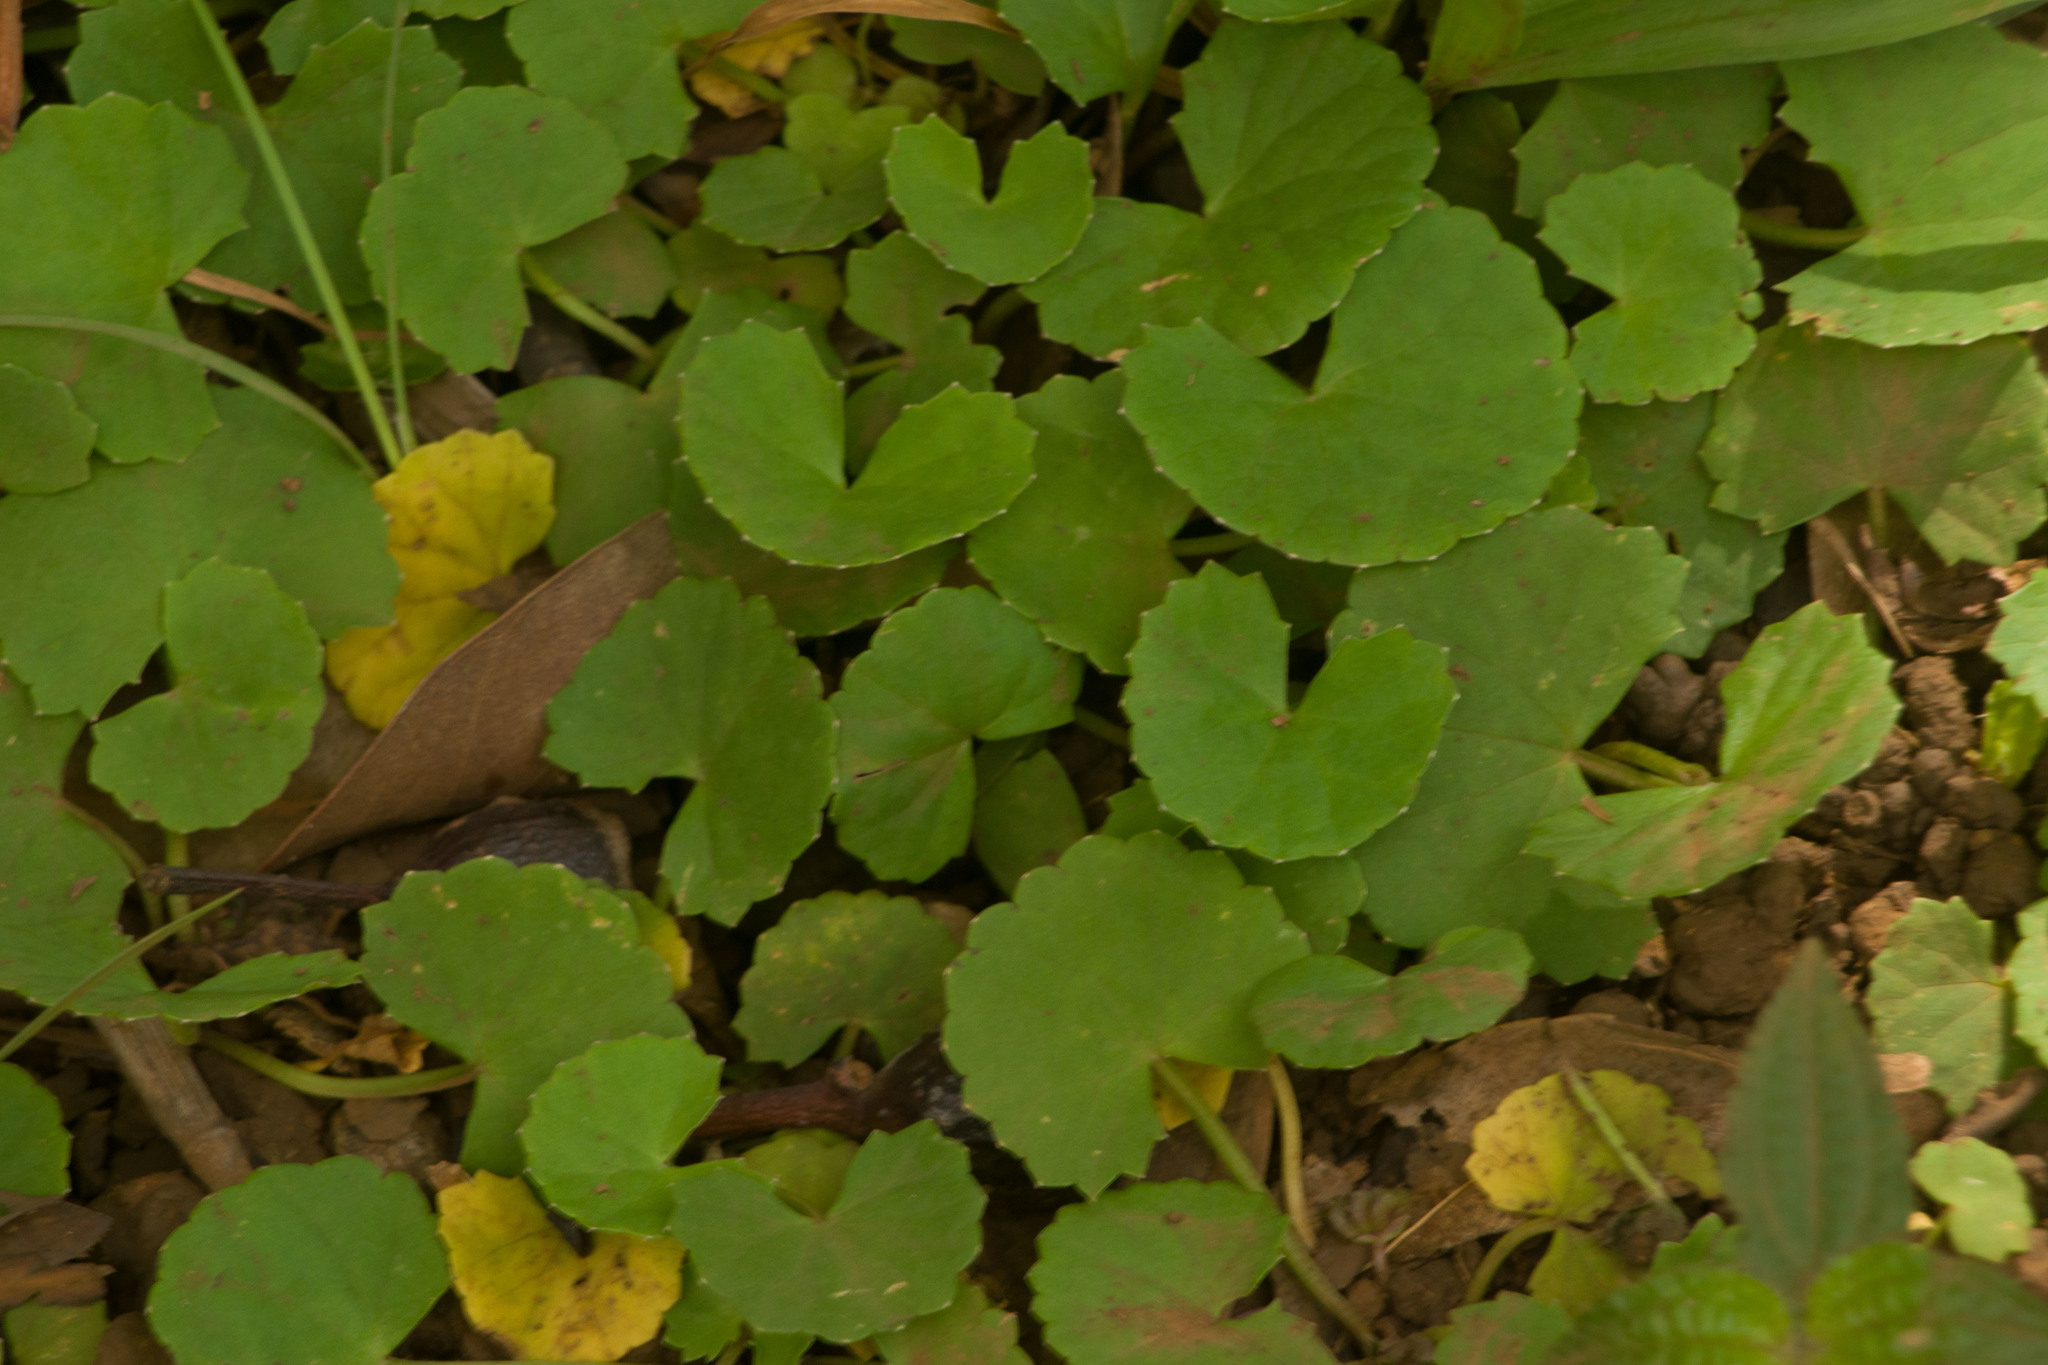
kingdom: Plantae
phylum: Tracheophyta
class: Magnoliopsida
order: Apiales
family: Apiaceae
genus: Centella
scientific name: Centella asiatica
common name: Spadeleaf
